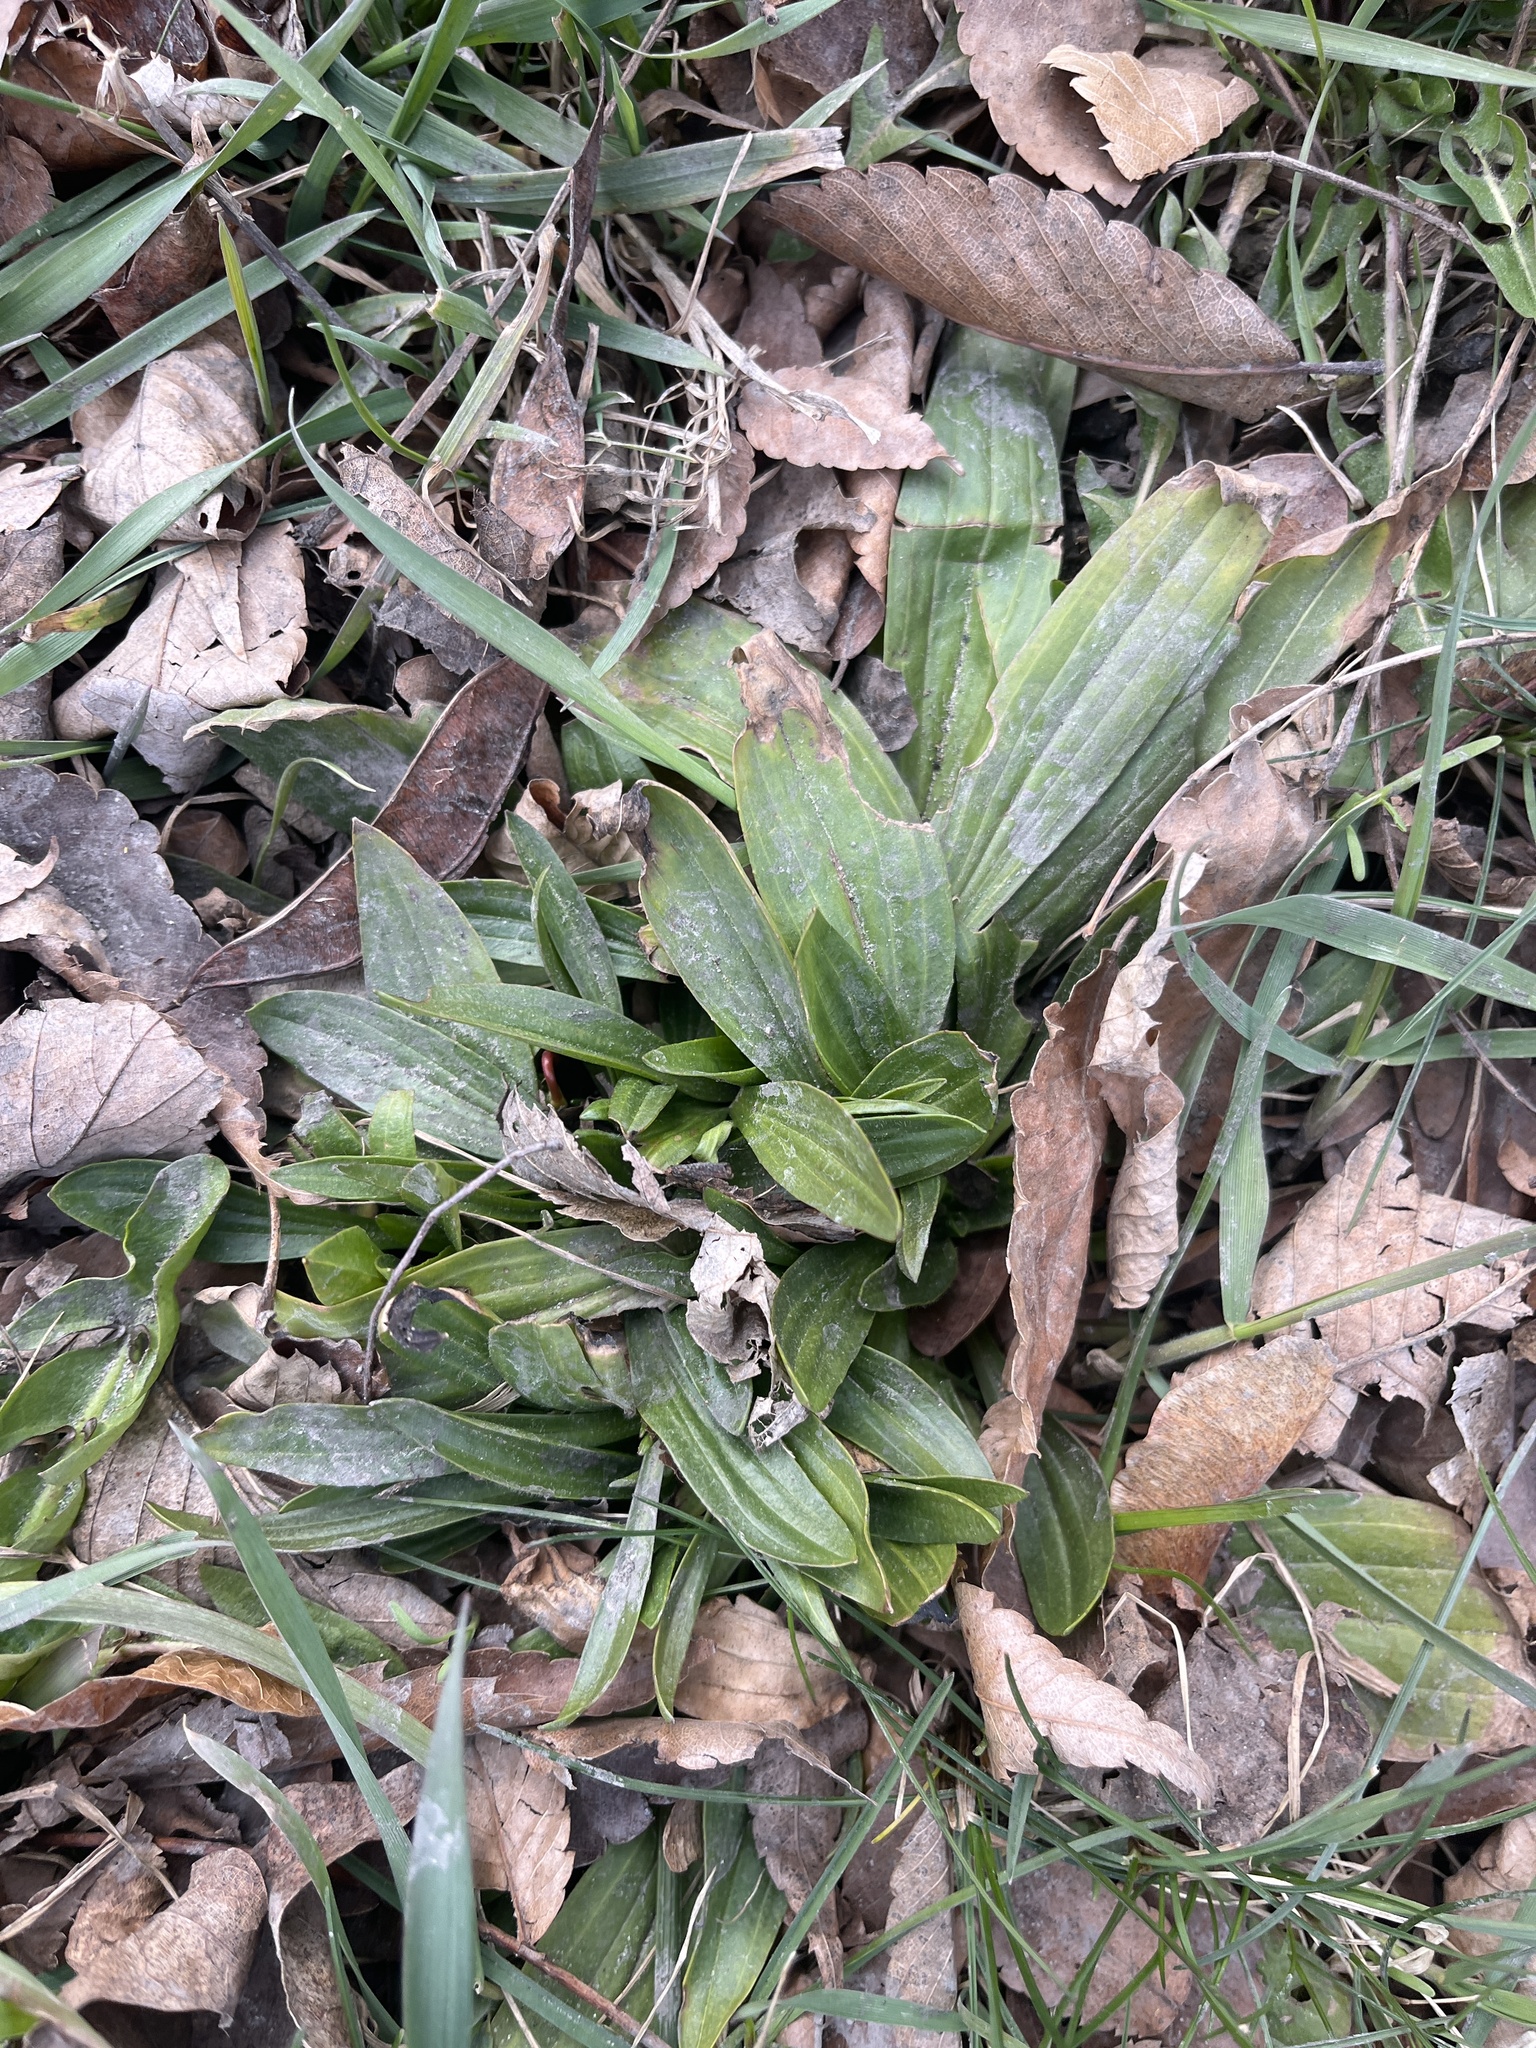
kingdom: Plantae
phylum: Tracheophyta
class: Magnoliopsida
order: Lamiales
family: Plantaginaceae
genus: Plantago
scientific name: Plantago lanceolata
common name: Ribwort plantain
